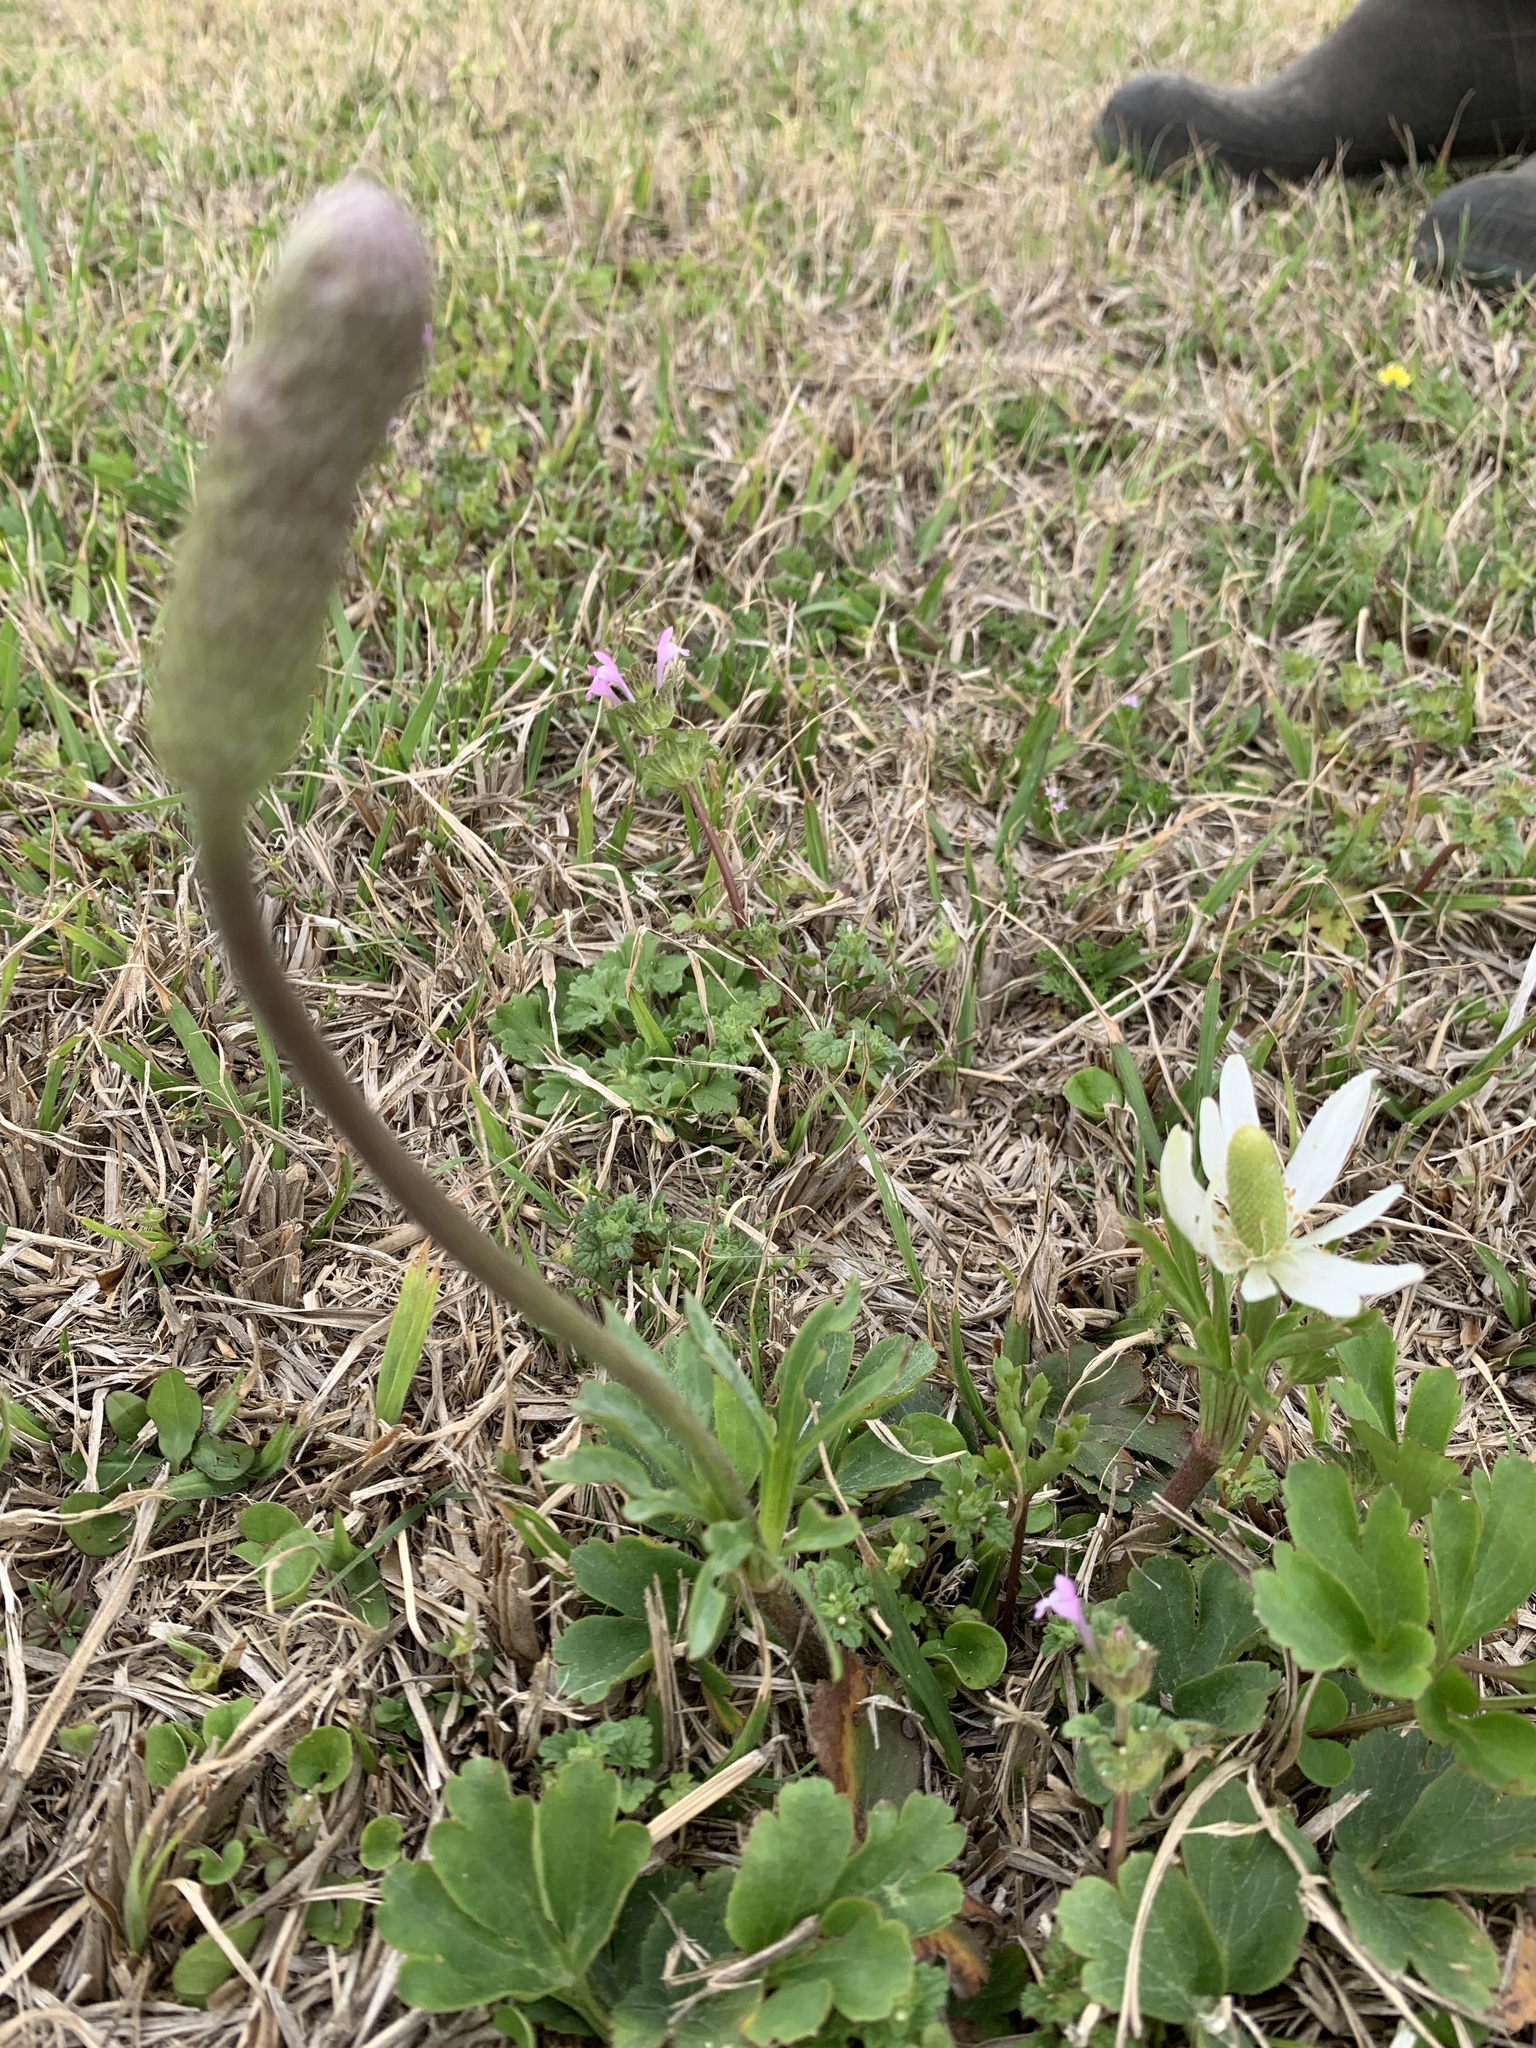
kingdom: Plantae
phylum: Tracheophyta
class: Magnoliopsida
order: Ranunculales
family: Ranunculaceae
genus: Anemone
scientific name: Anemone berlandieri
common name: Ten-petal anemone
